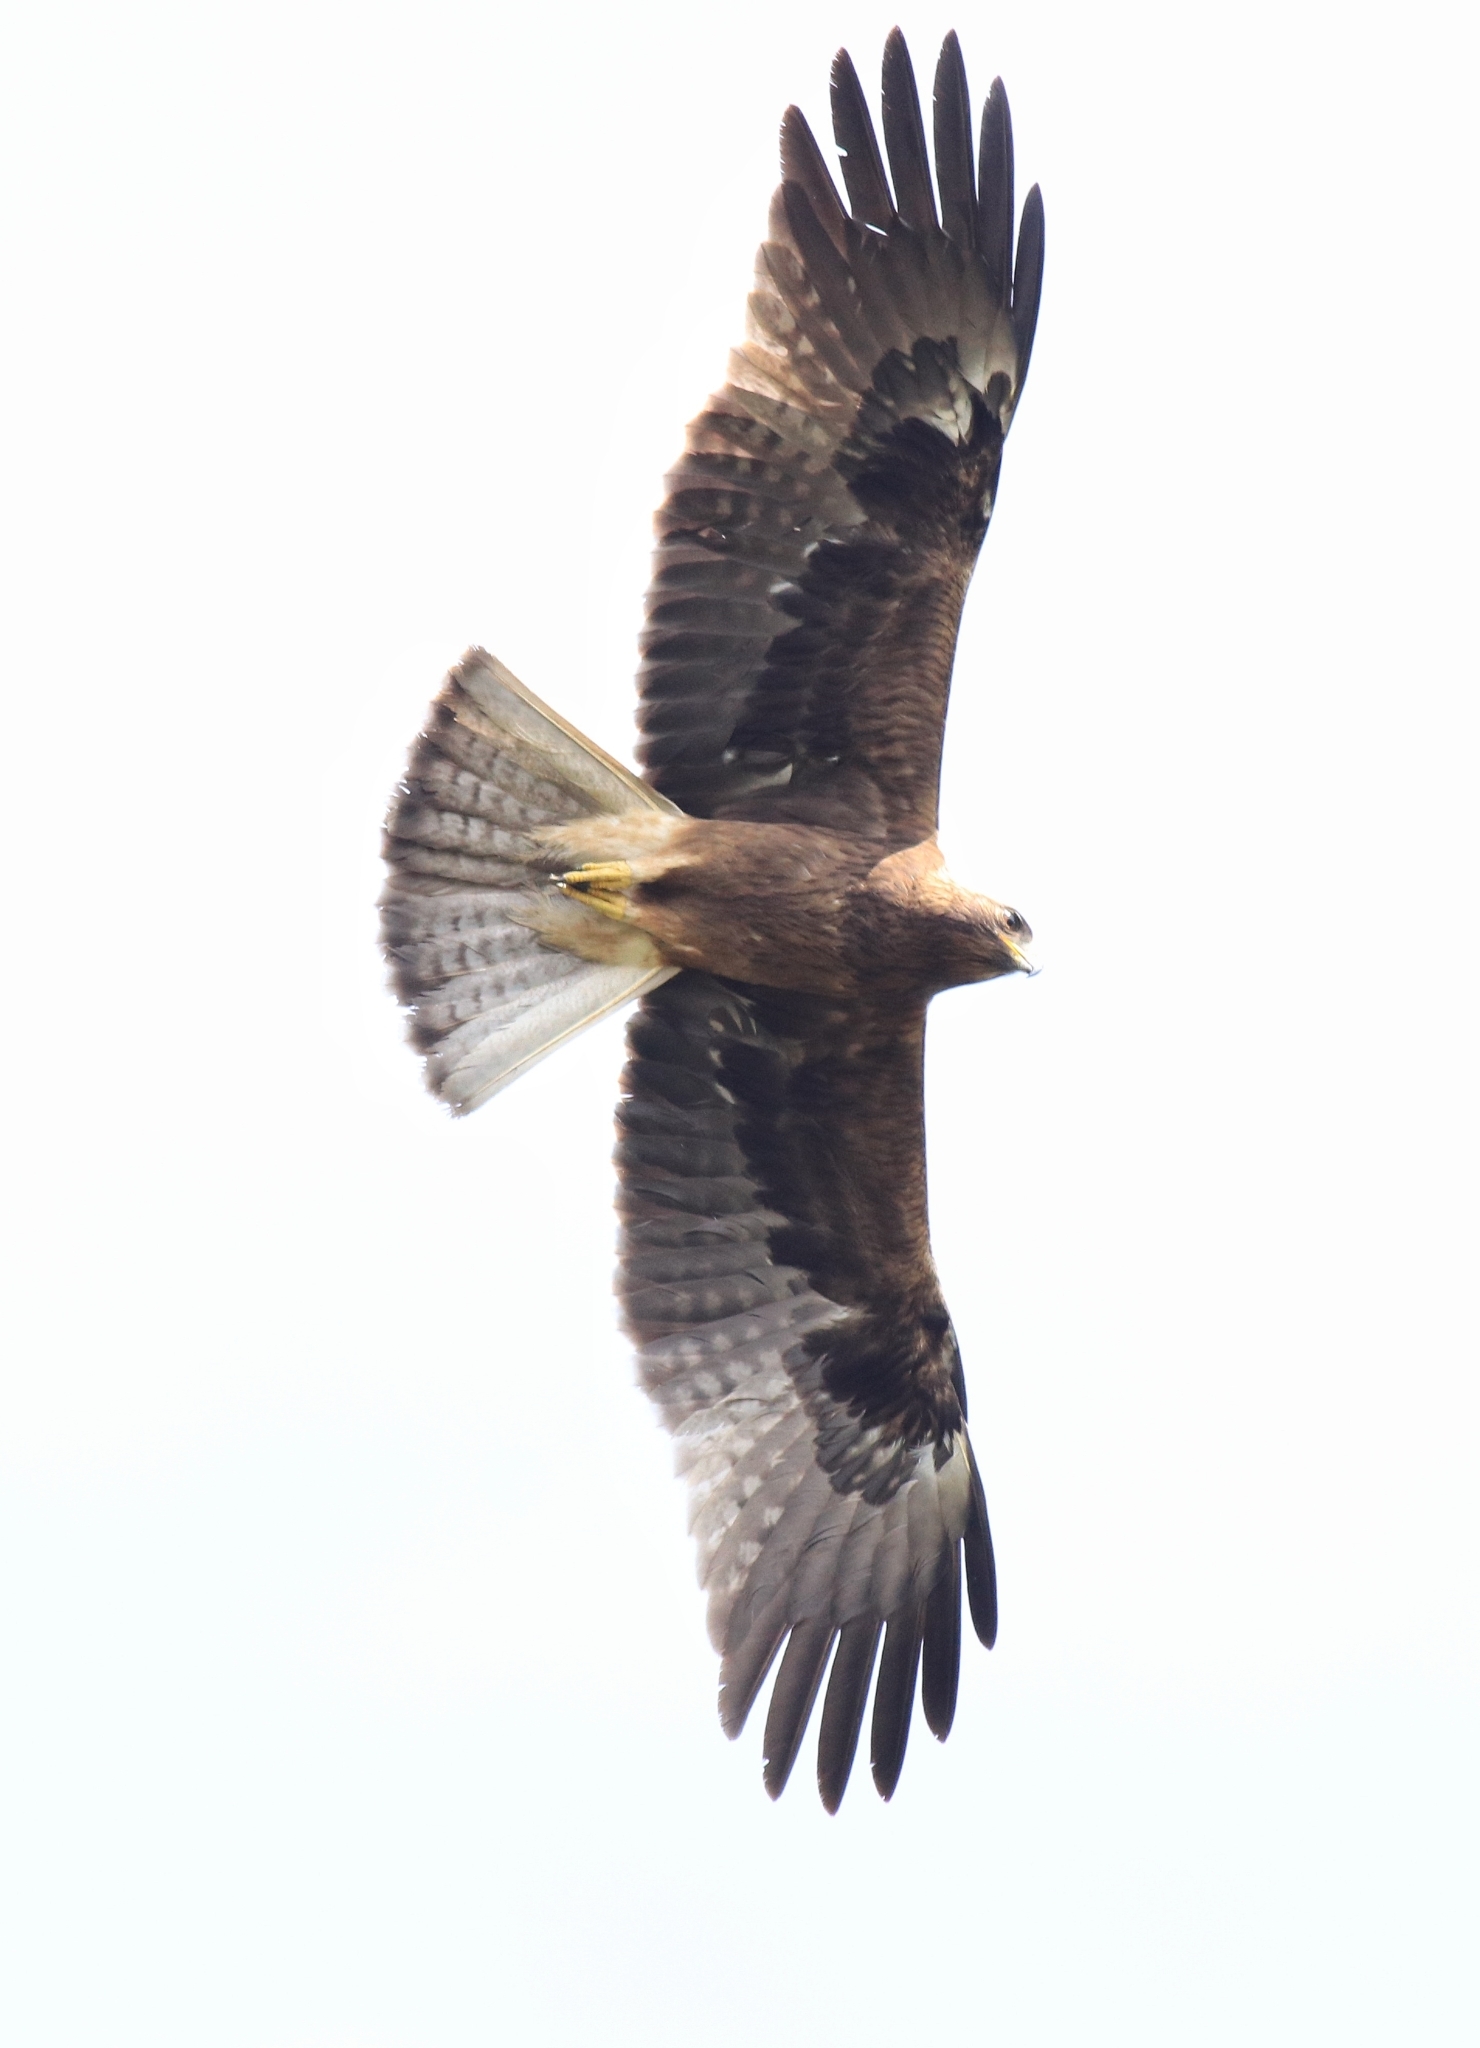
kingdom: Animalia
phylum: Chordata
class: Aves
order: Accipitriformes
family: Accipitridae
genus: Hieraaetus
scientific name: Hieraaetus pennatus
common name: Booted eagle
